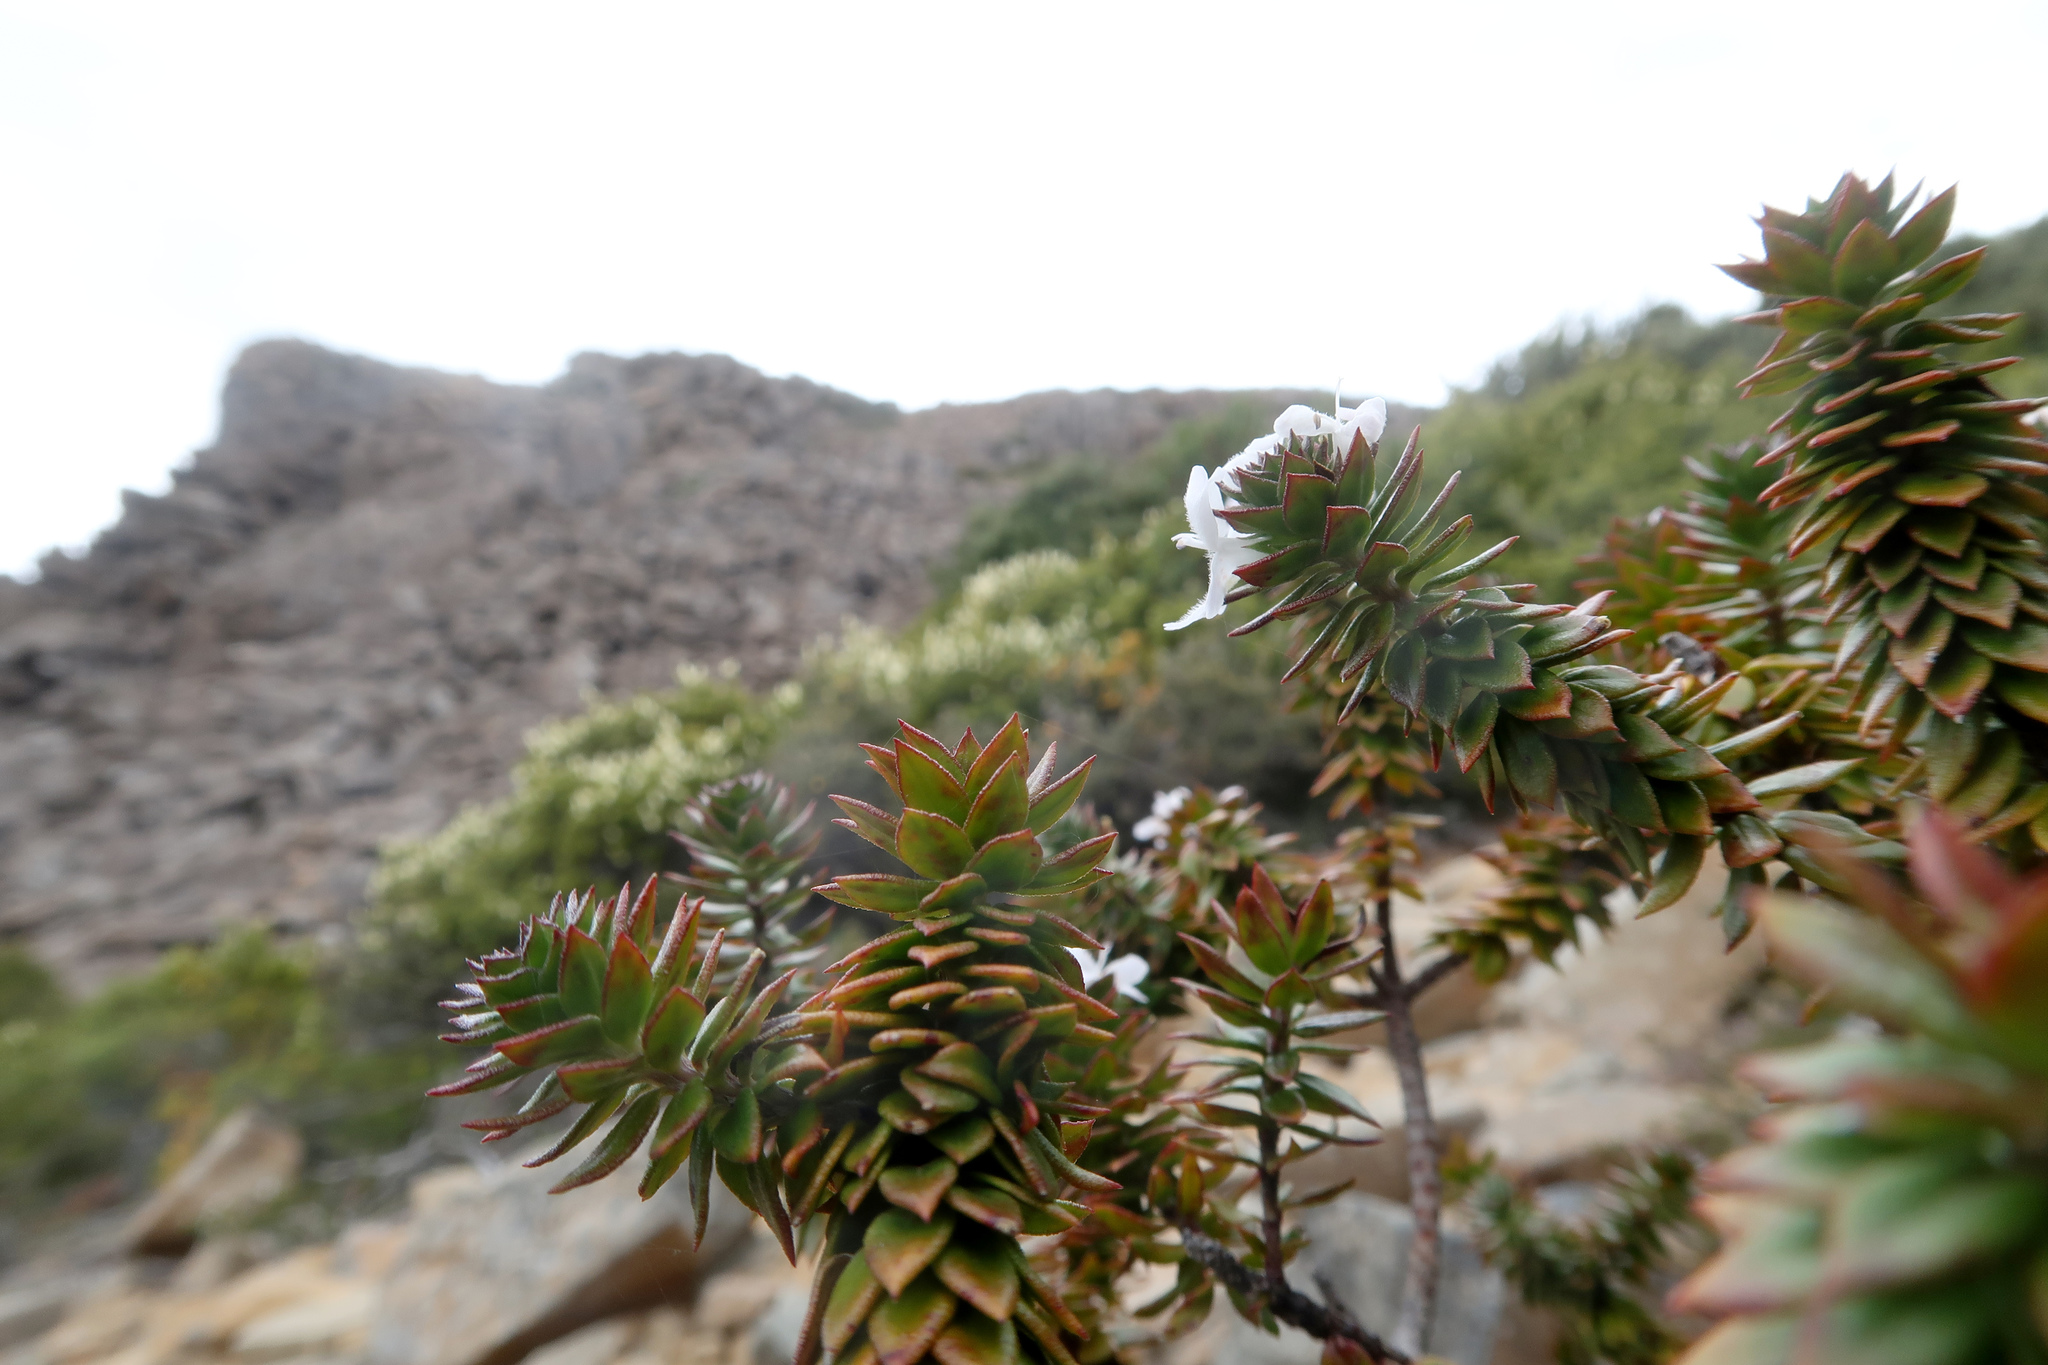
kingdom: Plantae
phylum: Tracheophyta
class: Magnoliopsida
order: Lamiales
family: Lamiaceae
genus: Westringia
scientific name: Westringia rubiifolia
